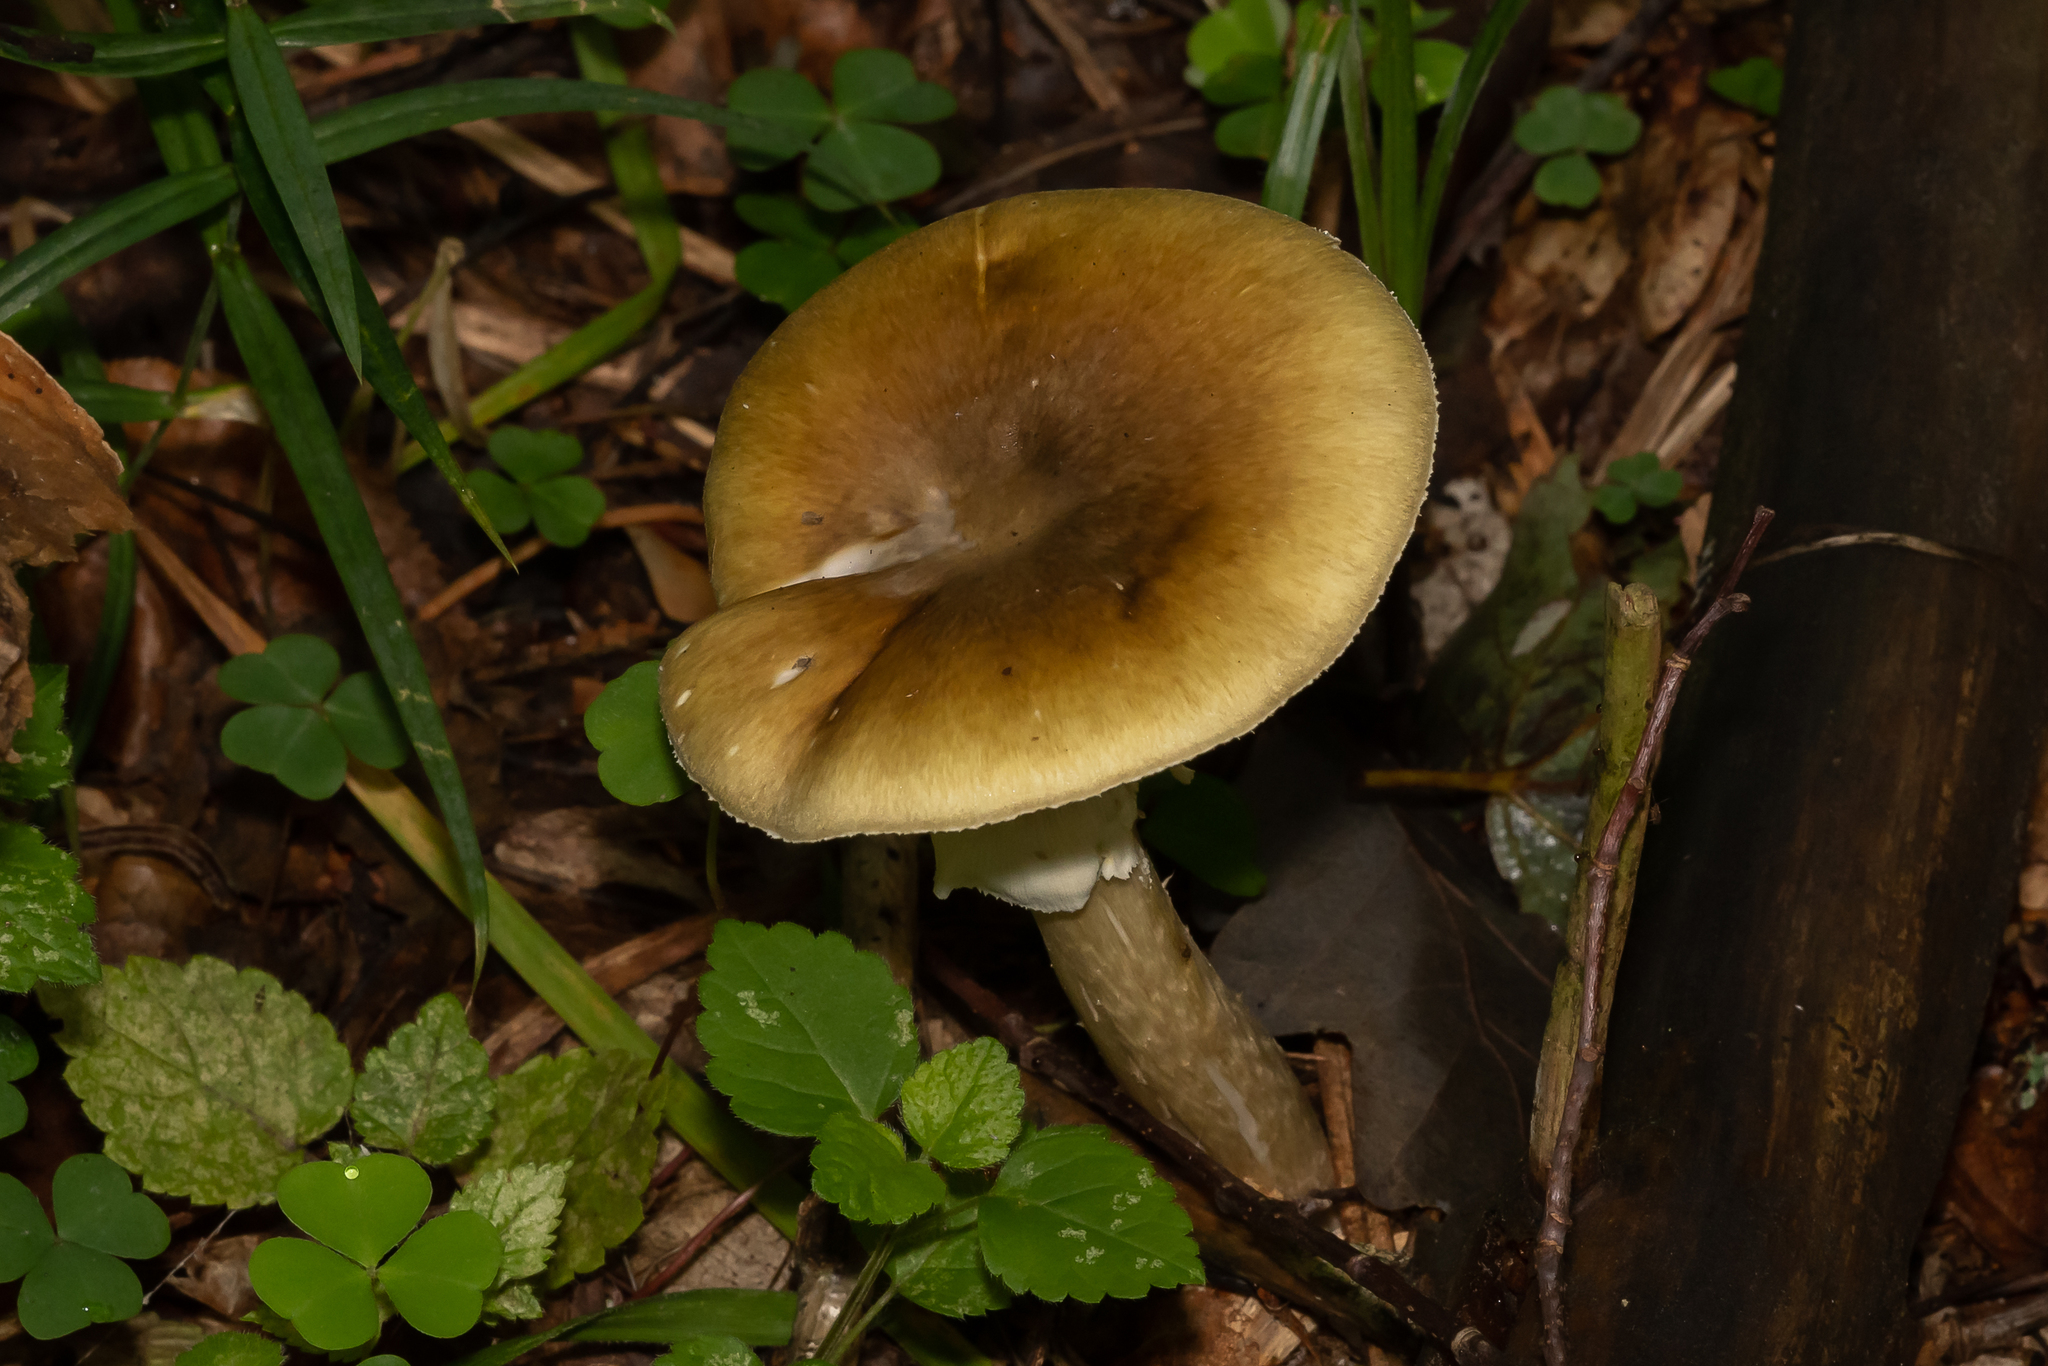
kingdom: Fungi
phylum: Basidiomycota
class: Agaricomycetes
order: Agaricales
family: Amanitaceae
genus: Amanita
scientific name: Amanita phalloides
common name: Death cap
